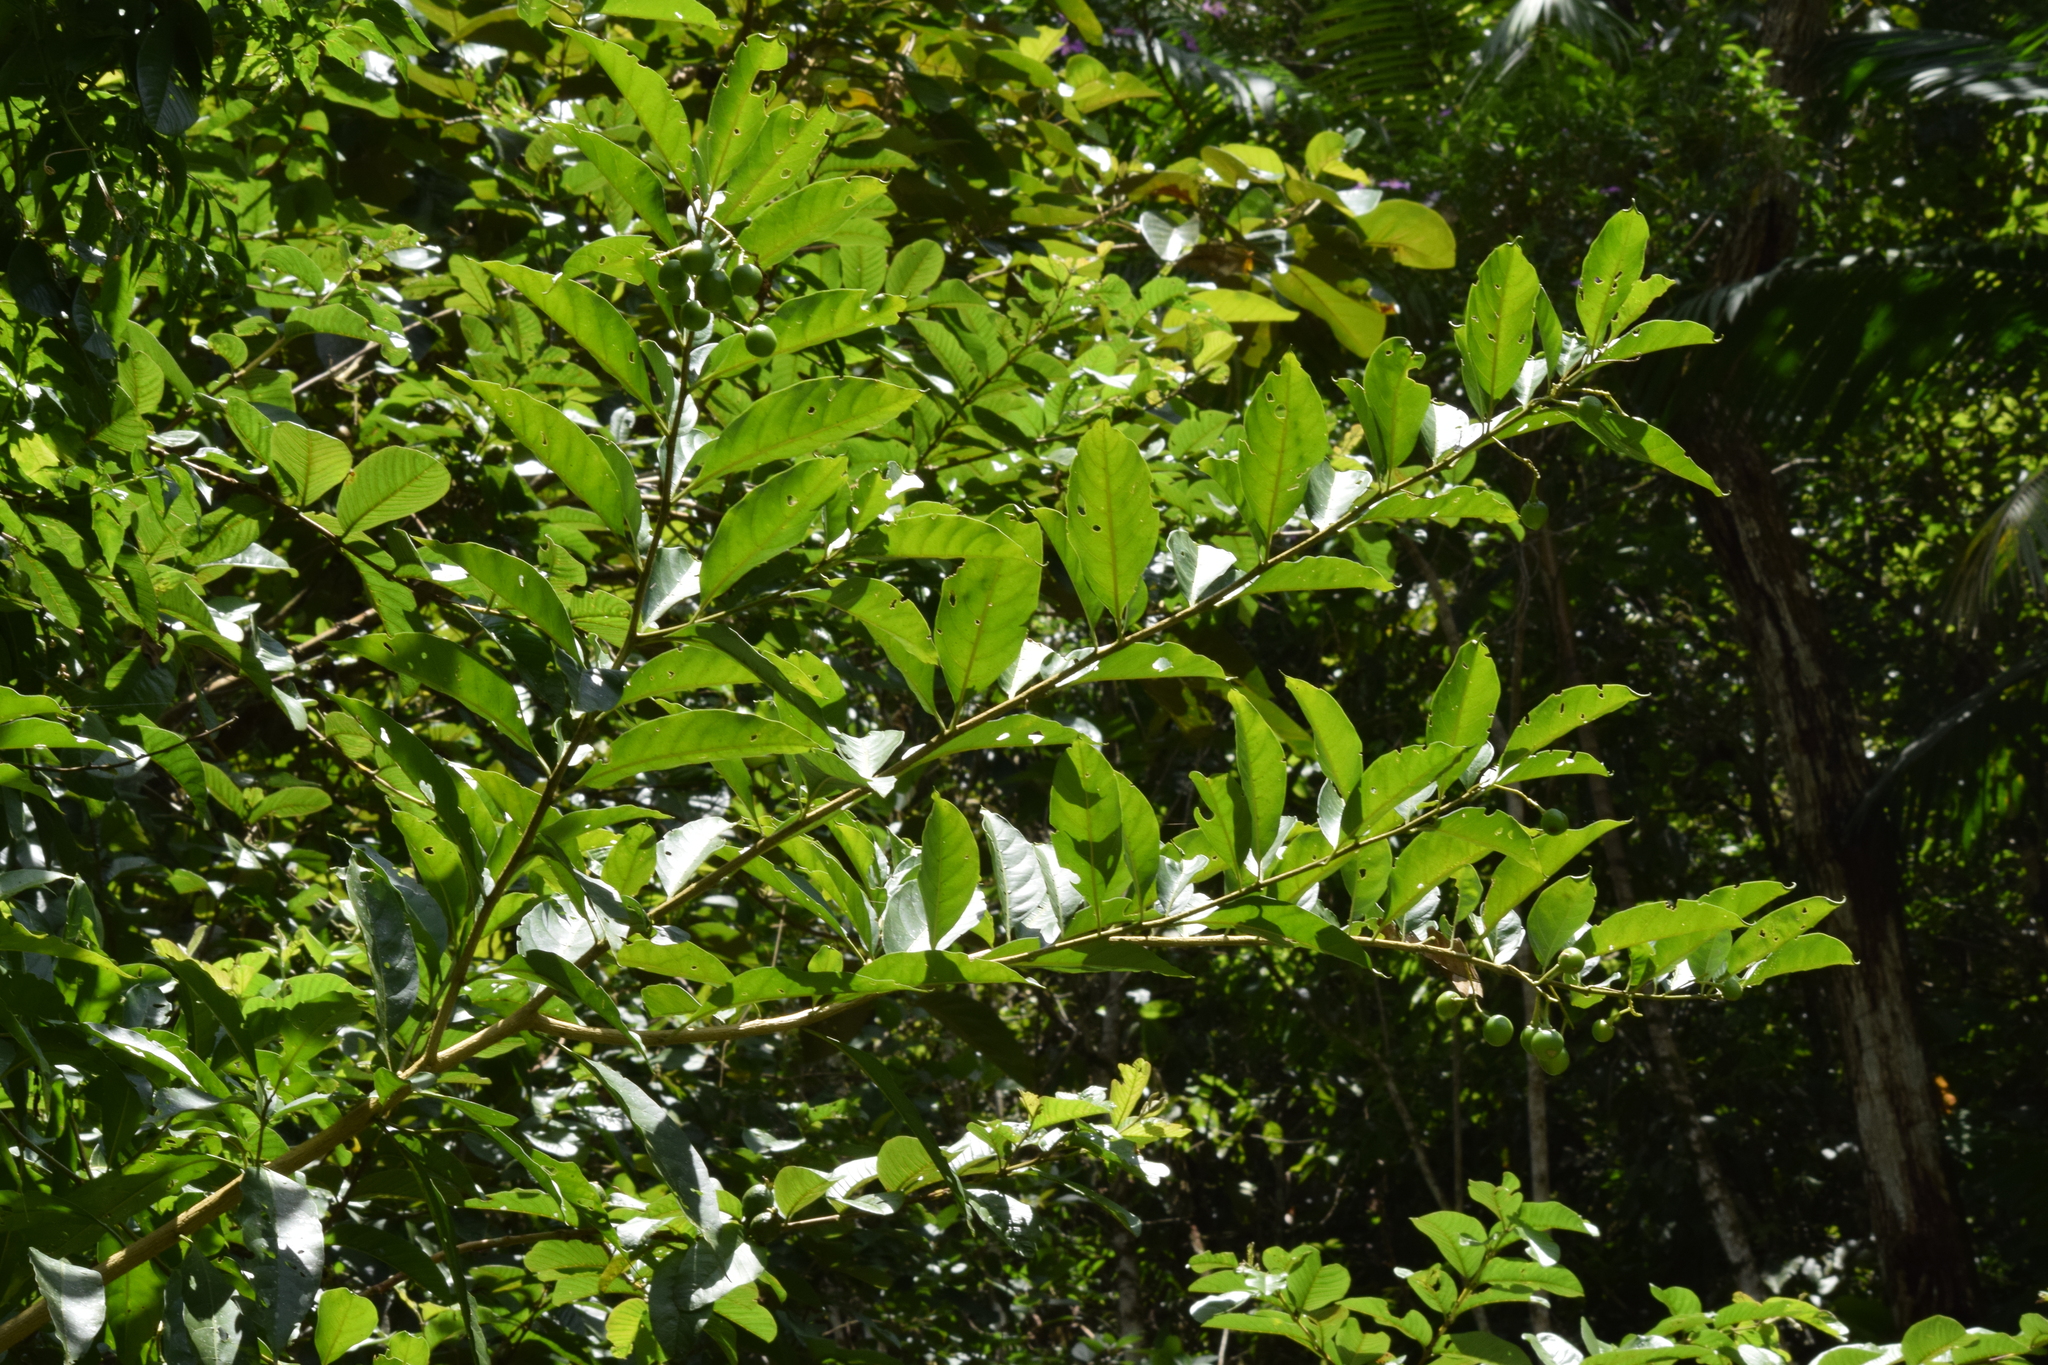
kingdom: Plantae
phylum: Tracheophyta
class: Magnoliopsida
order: Solanales
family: Solanaceae
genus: Solanum
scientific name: Solanum pseudoquina
